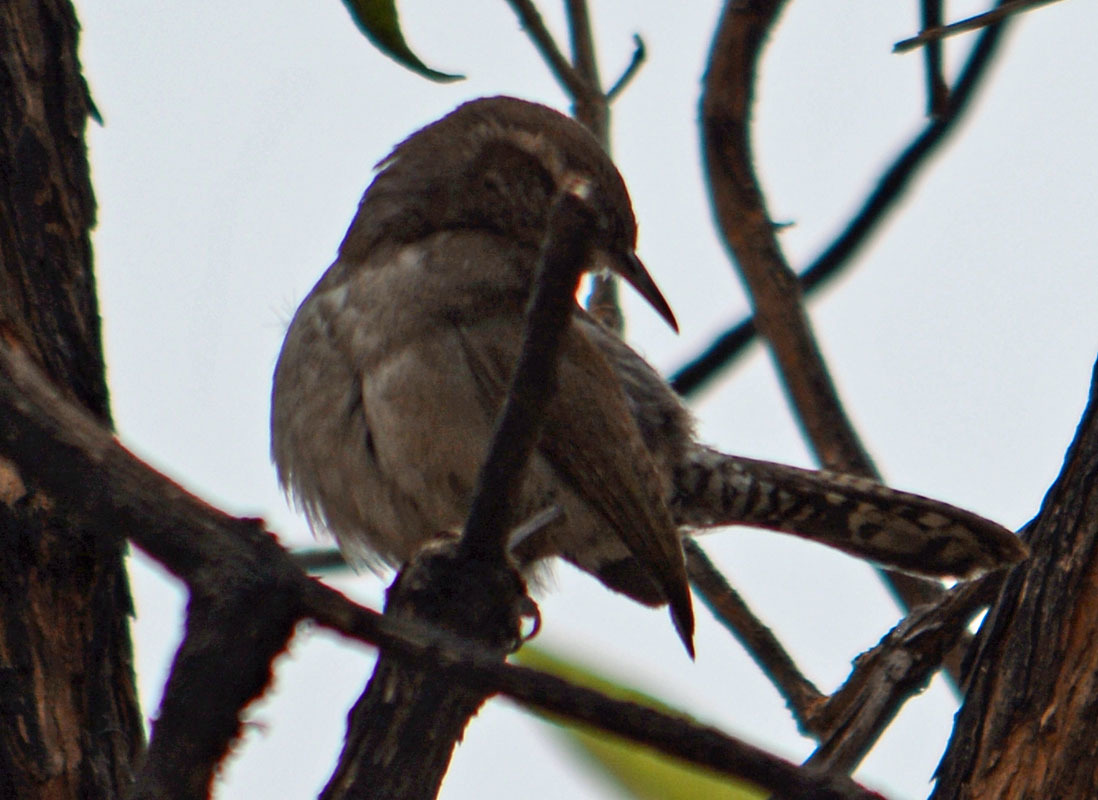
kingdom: Animalia
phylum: Chordata
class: Aves
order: Passeriformes
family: Troglodytidae
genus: Thryomanes
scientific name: Thryomanes bewickii
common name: Bewick's wren
